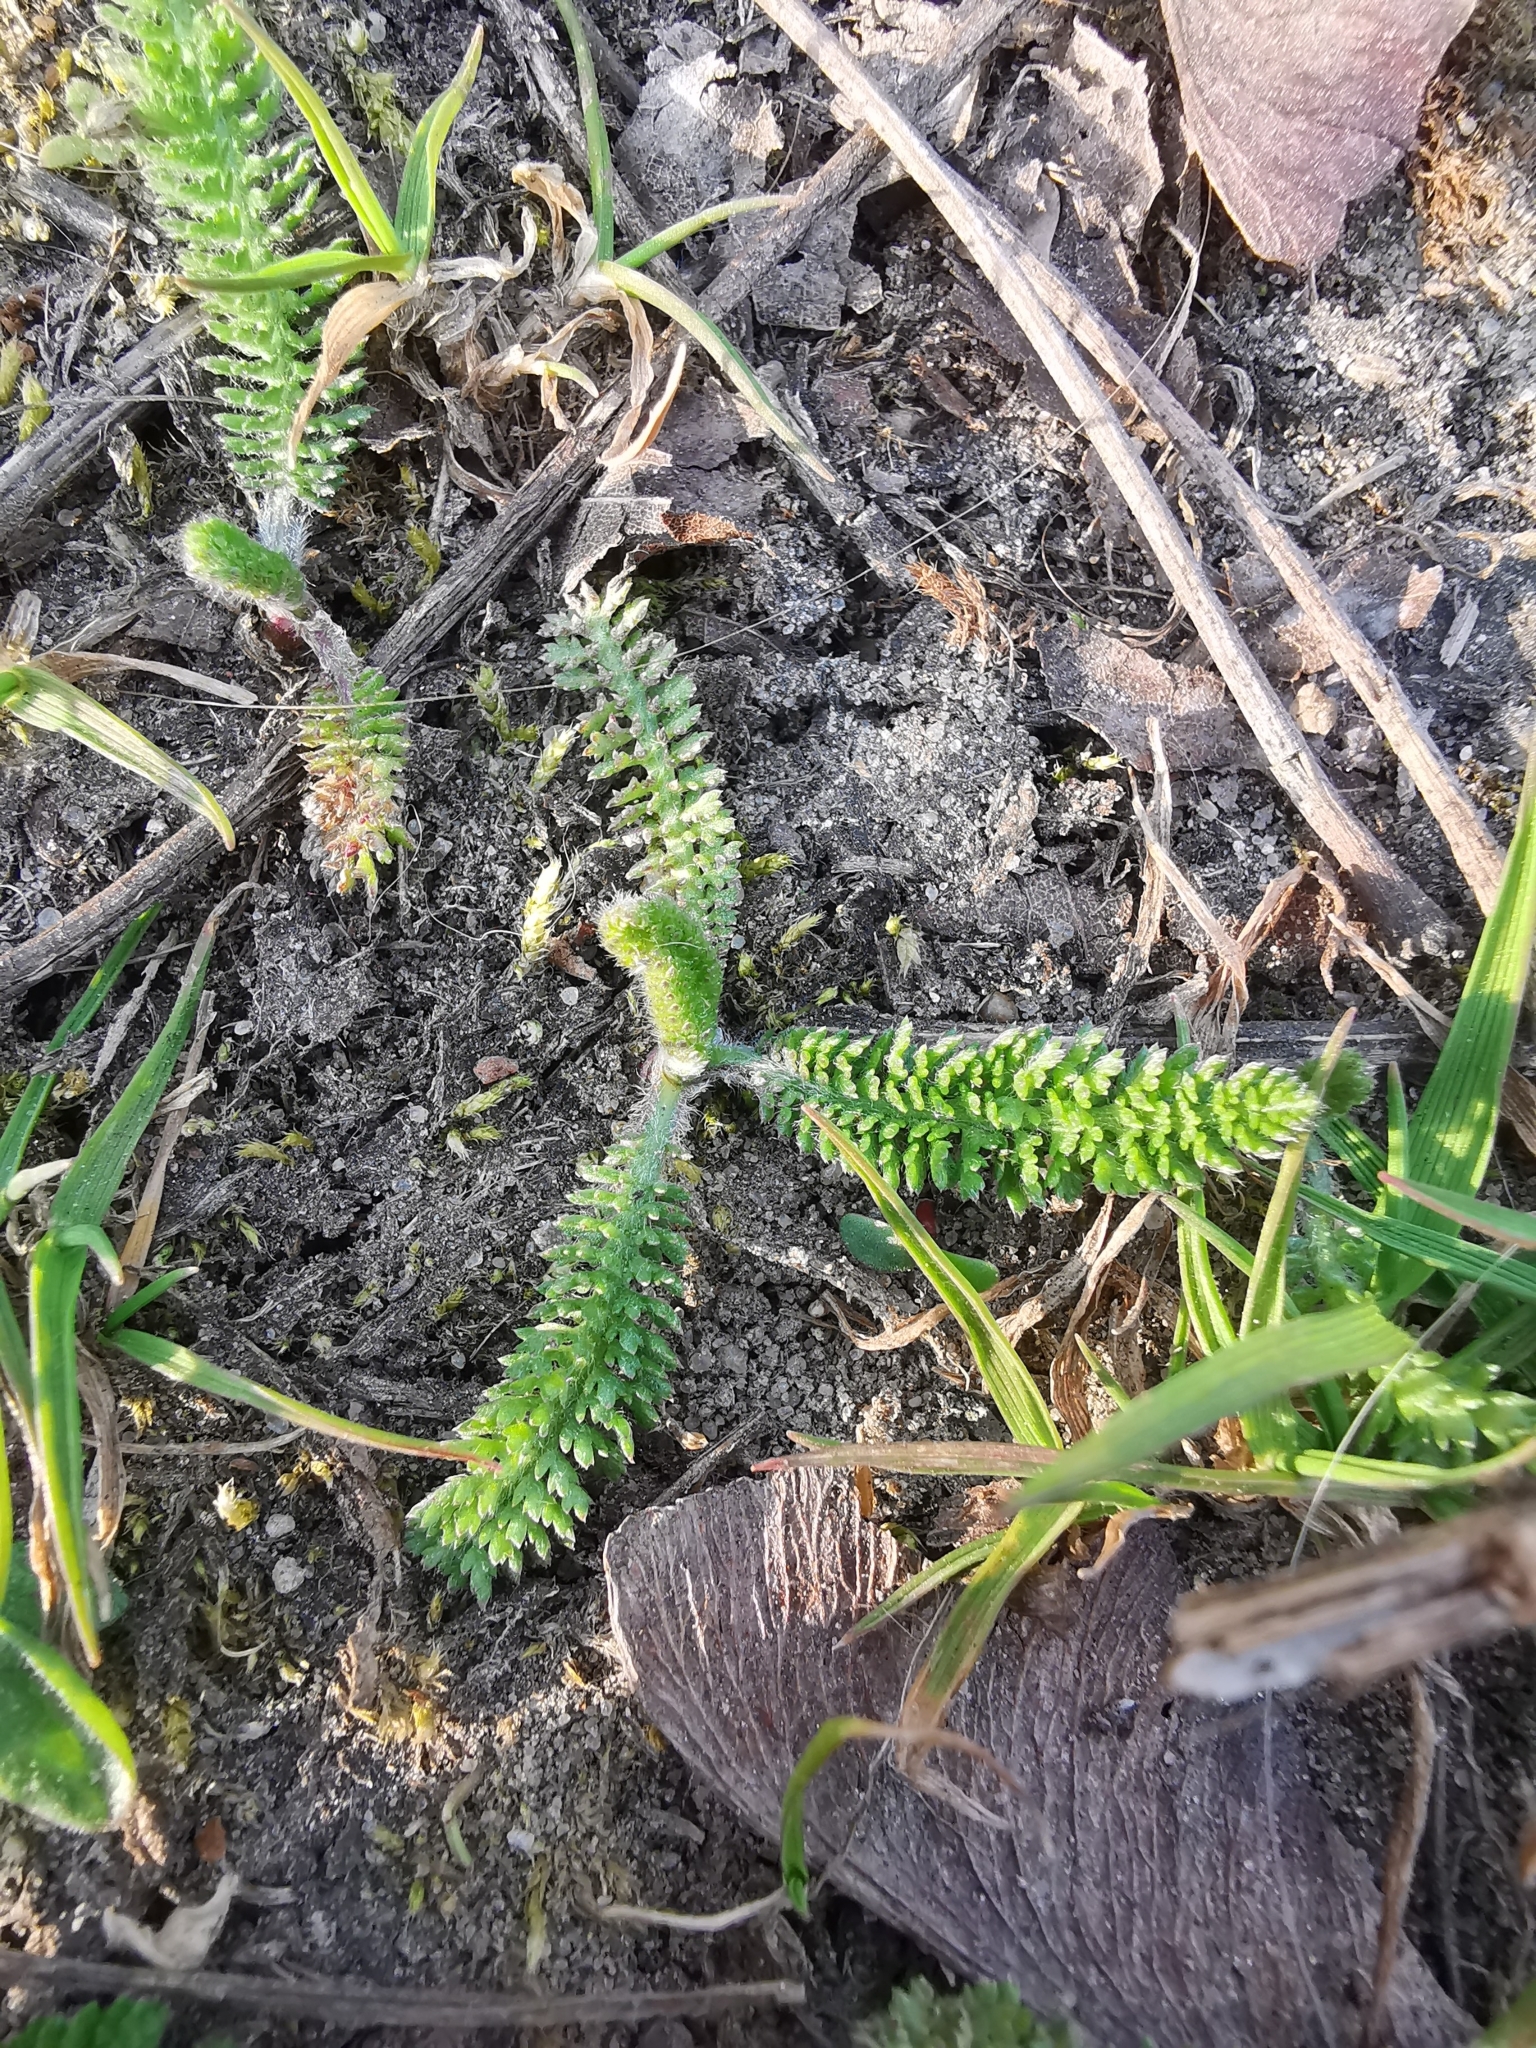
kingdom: Plantae
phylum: Tracheophyta
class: Magnoliopsida
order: Asterales
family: Asteraceae
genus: Achillea
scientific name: Achillea millefolium
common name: Yarrow
